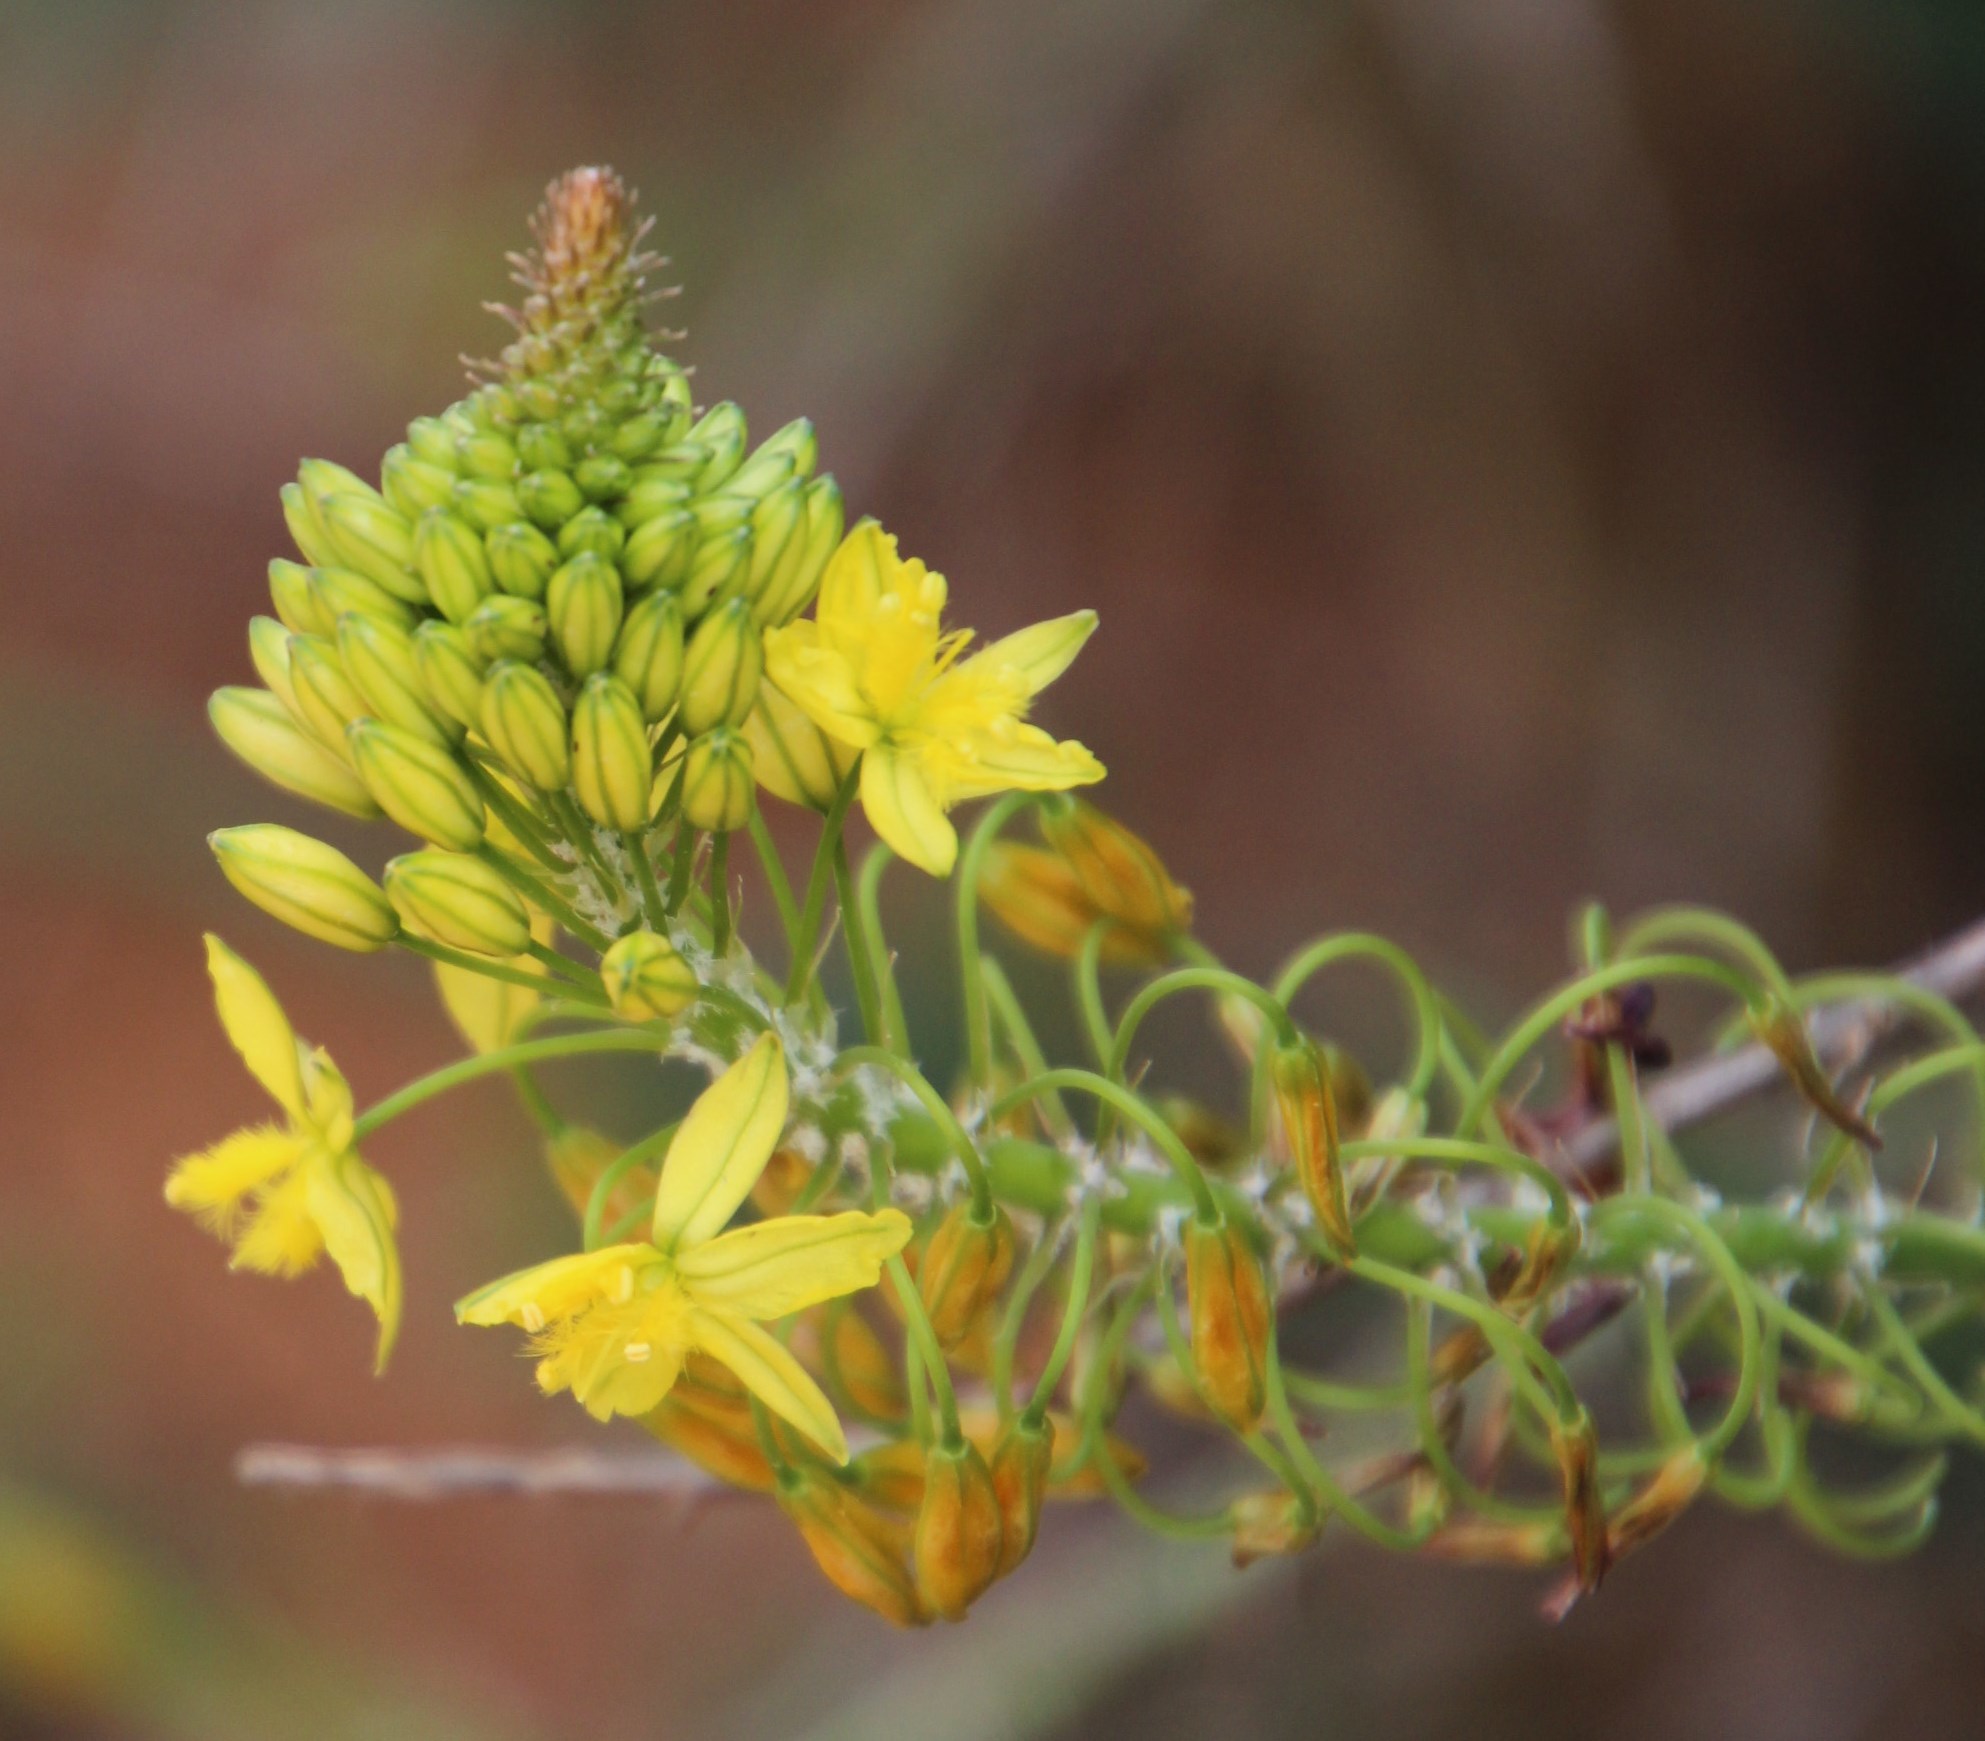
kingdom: Plantae
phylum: Tracheophyta
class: Liliopsida
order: Asparagales
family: Asphodelaceae
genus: Bulbine
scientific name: Bulbine frutescens
